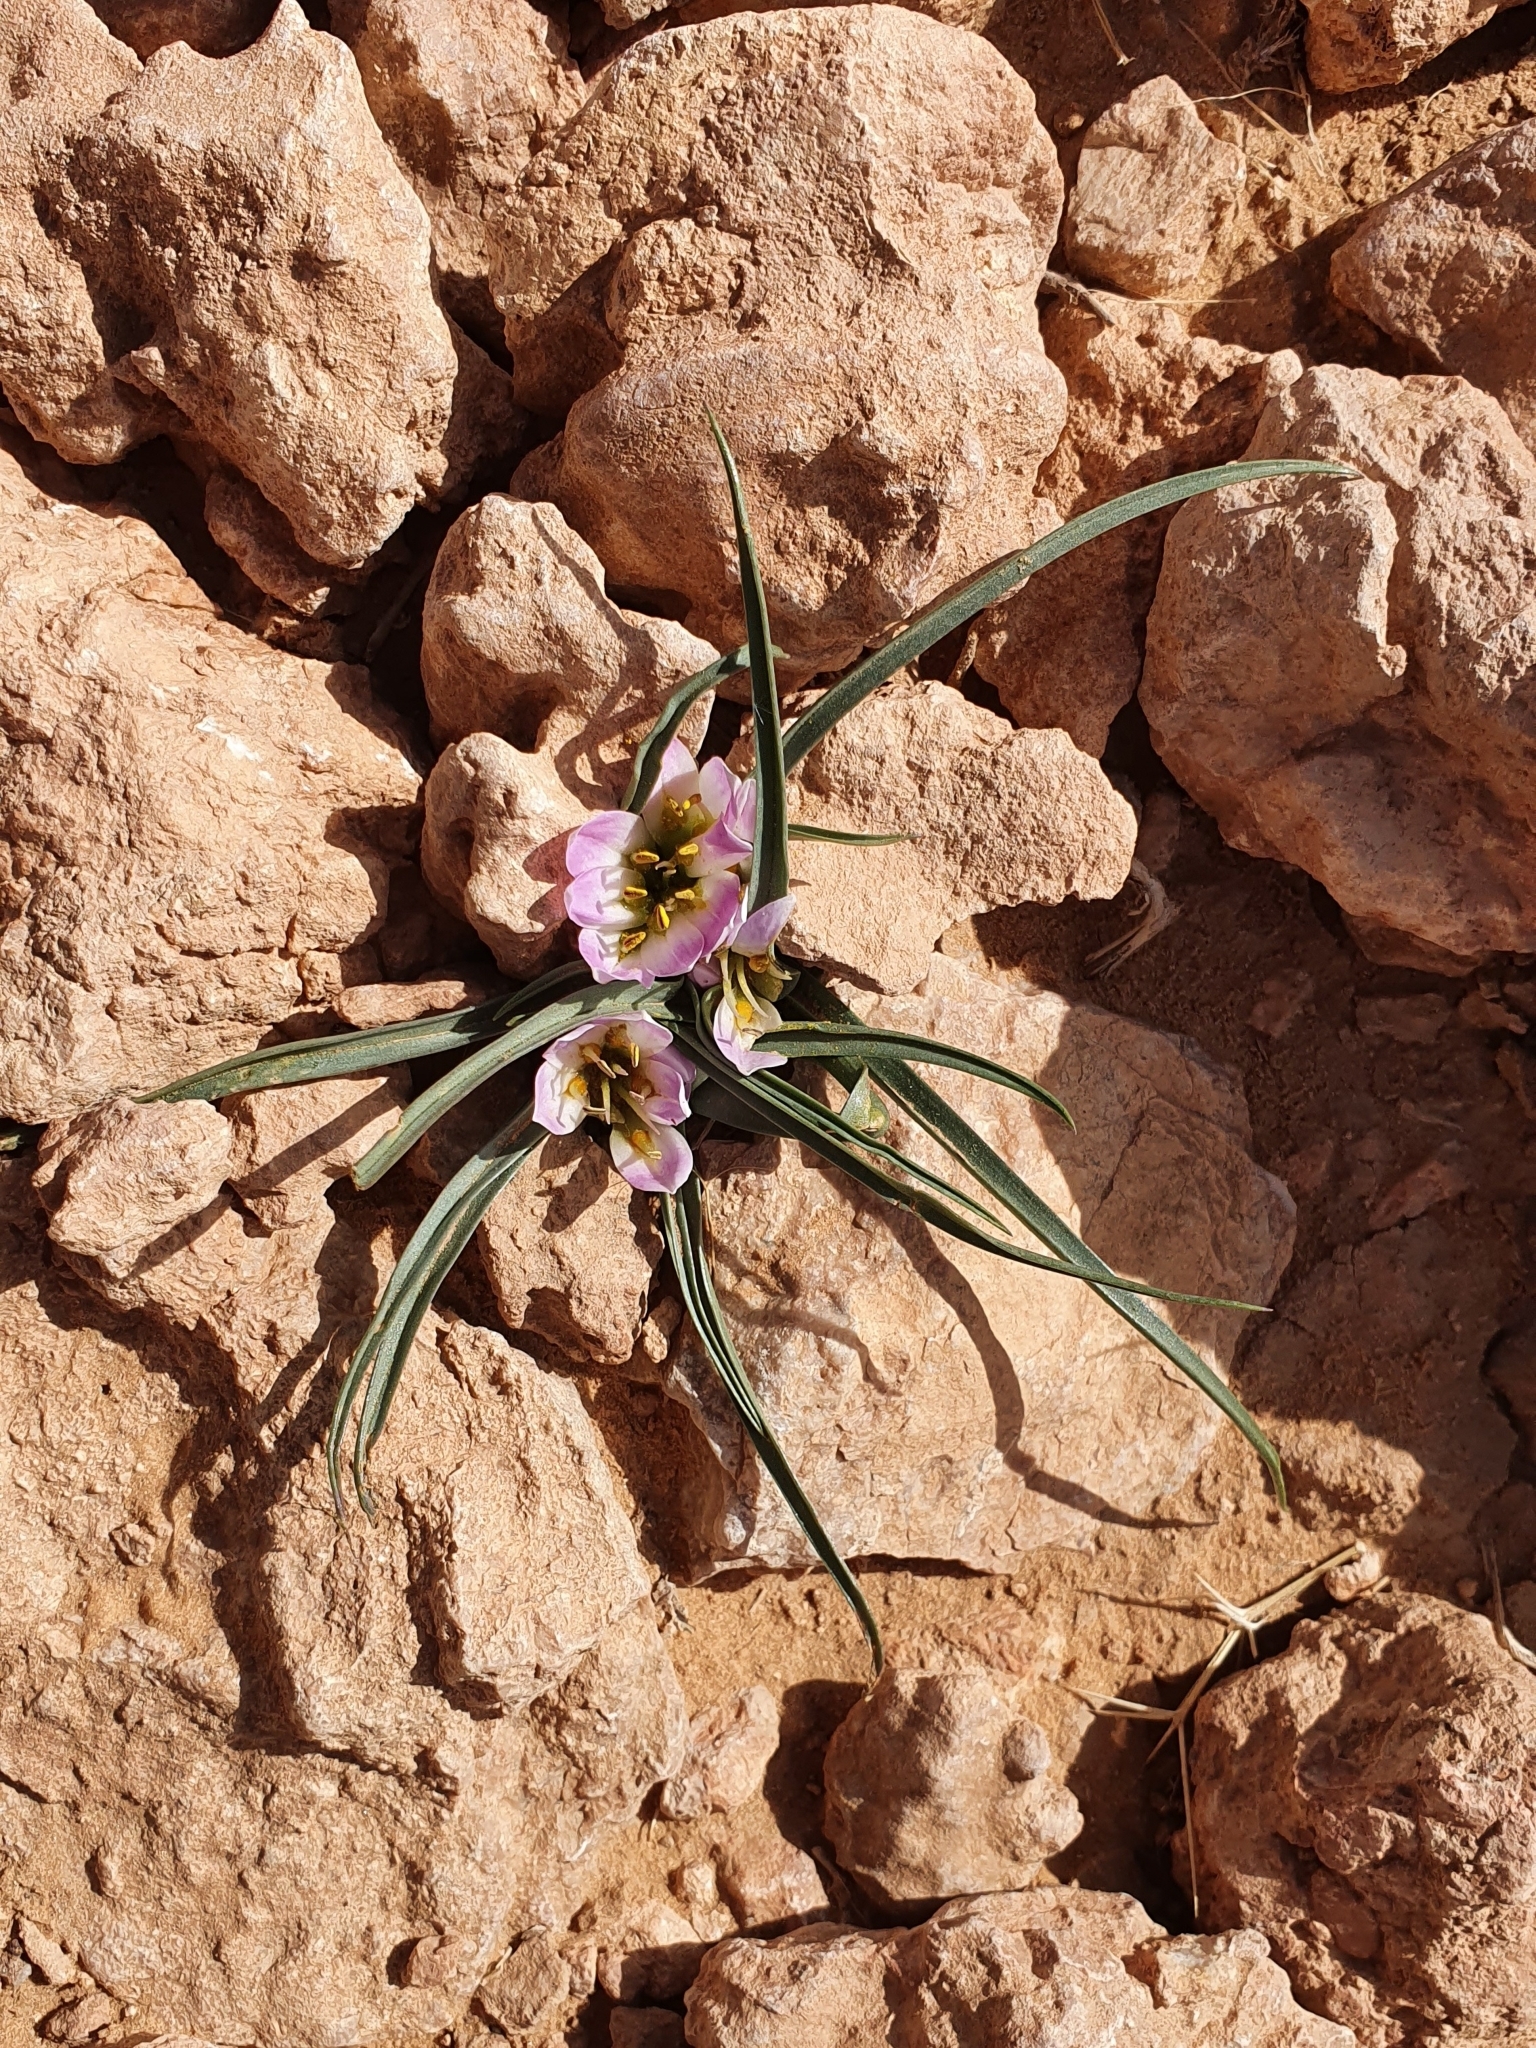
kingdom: Plantae
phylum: Tracheophyta
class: Liliopsida
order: Liliales
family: Colchicaceae
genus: Colchicum
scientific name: Colchicum gramineum
